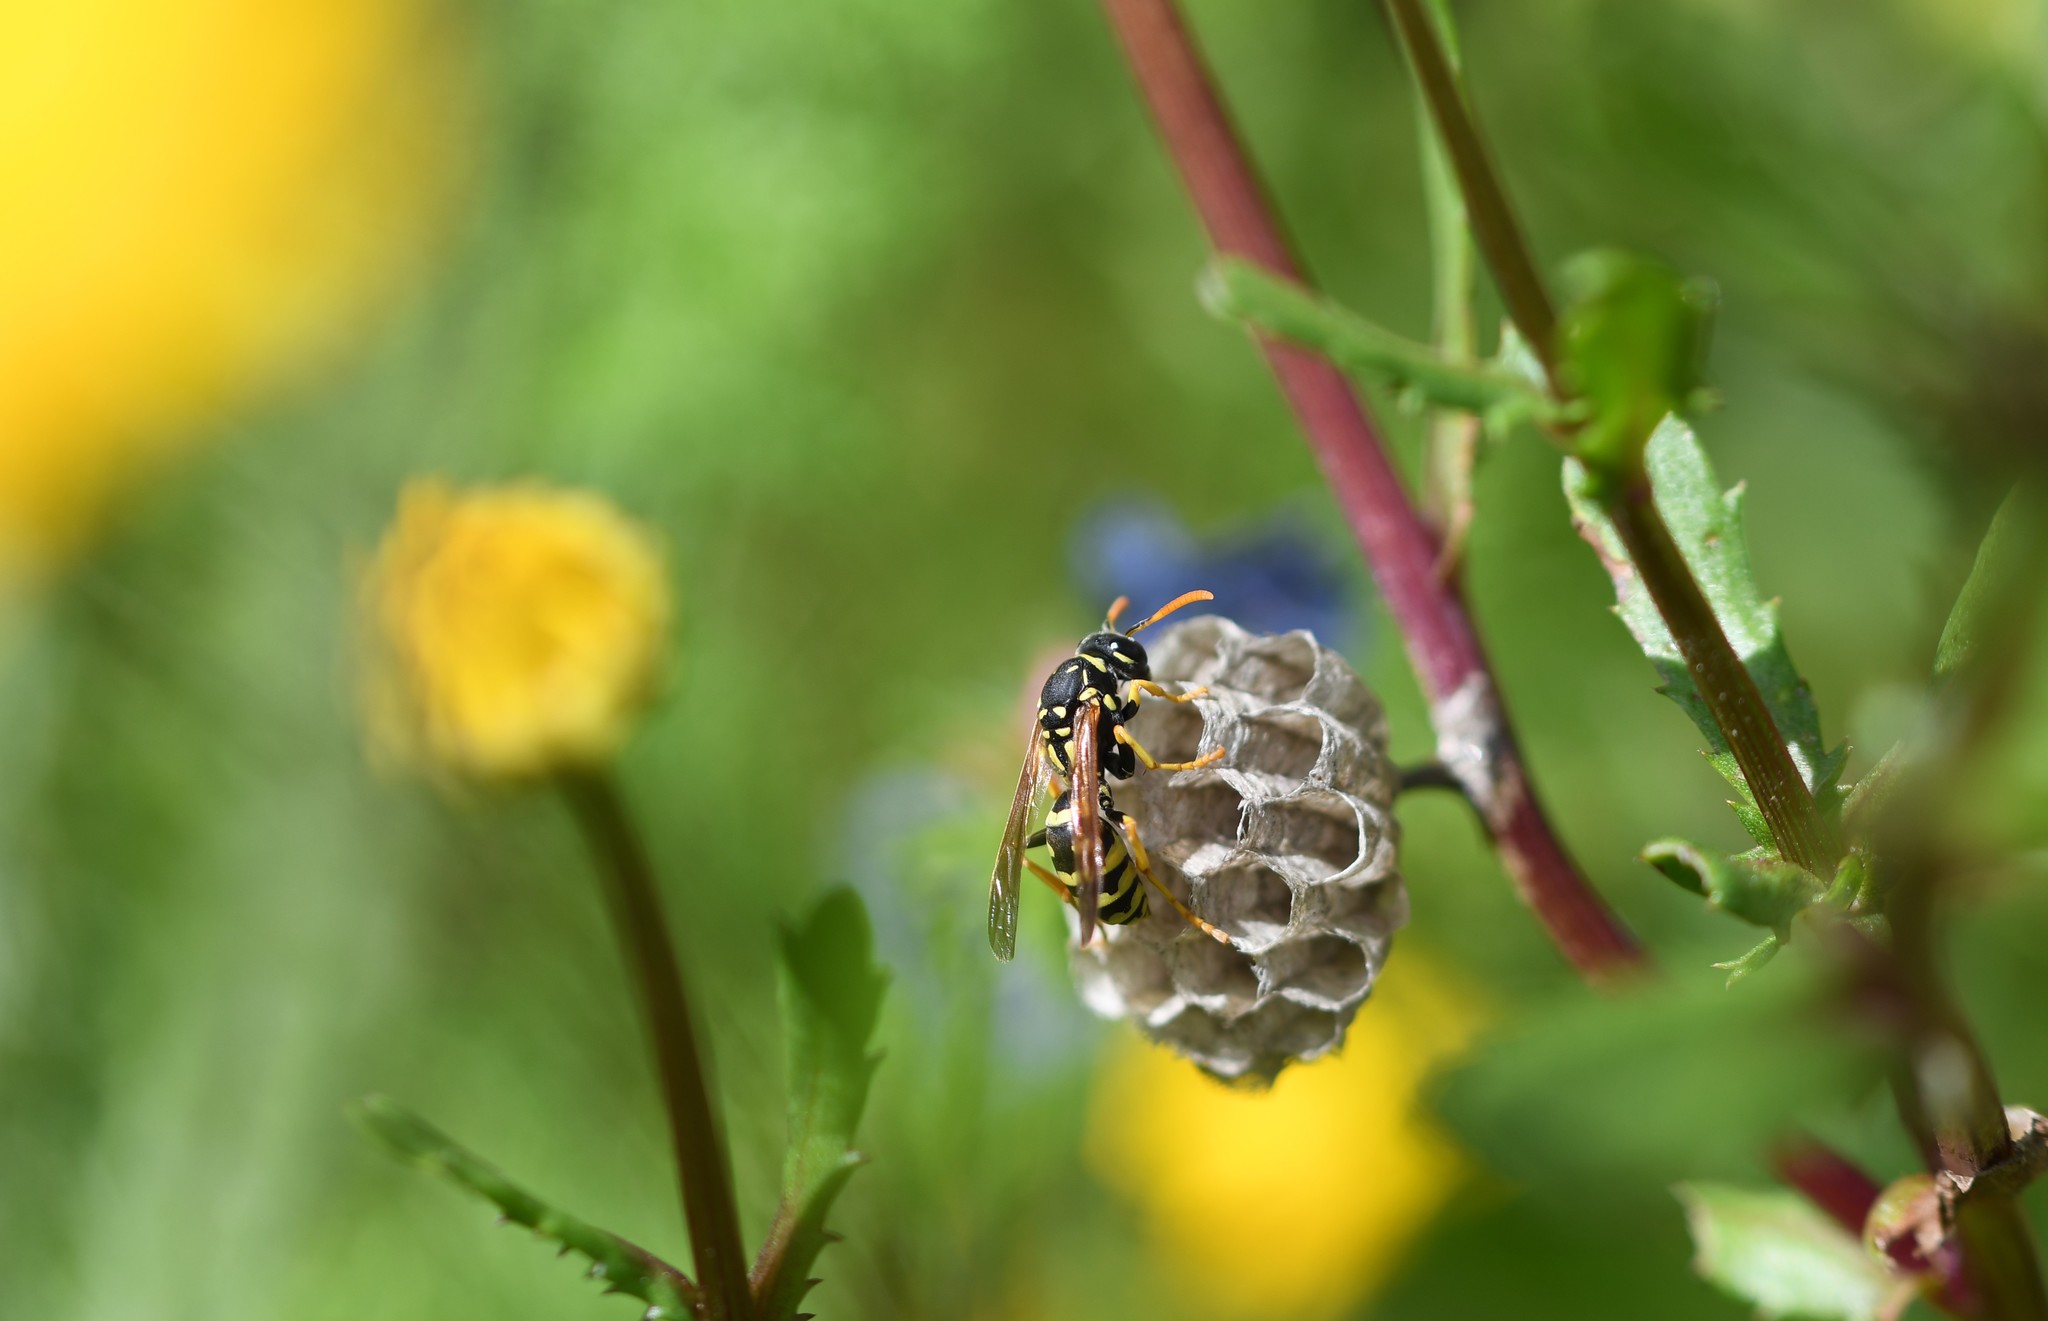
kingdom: Animalia
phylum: Arthropoda
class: Insecta
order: Hymenoptera
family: Eumenidae
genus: Polistes
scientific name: Polistes dominula
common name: Paper wasp
